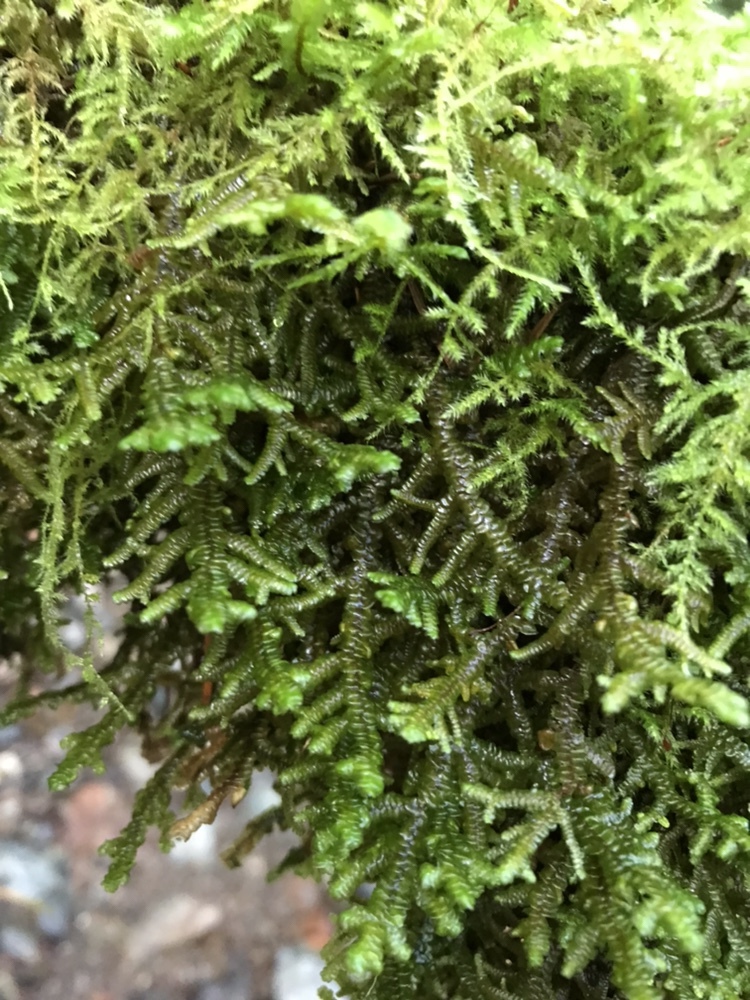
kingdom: Plantae
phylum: Marchantiophyta
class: Jungermanniopsida
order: Porellales
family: Porellaceae
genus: Porella
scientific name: Porella navicularis
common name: Tree ruffle liverwort
